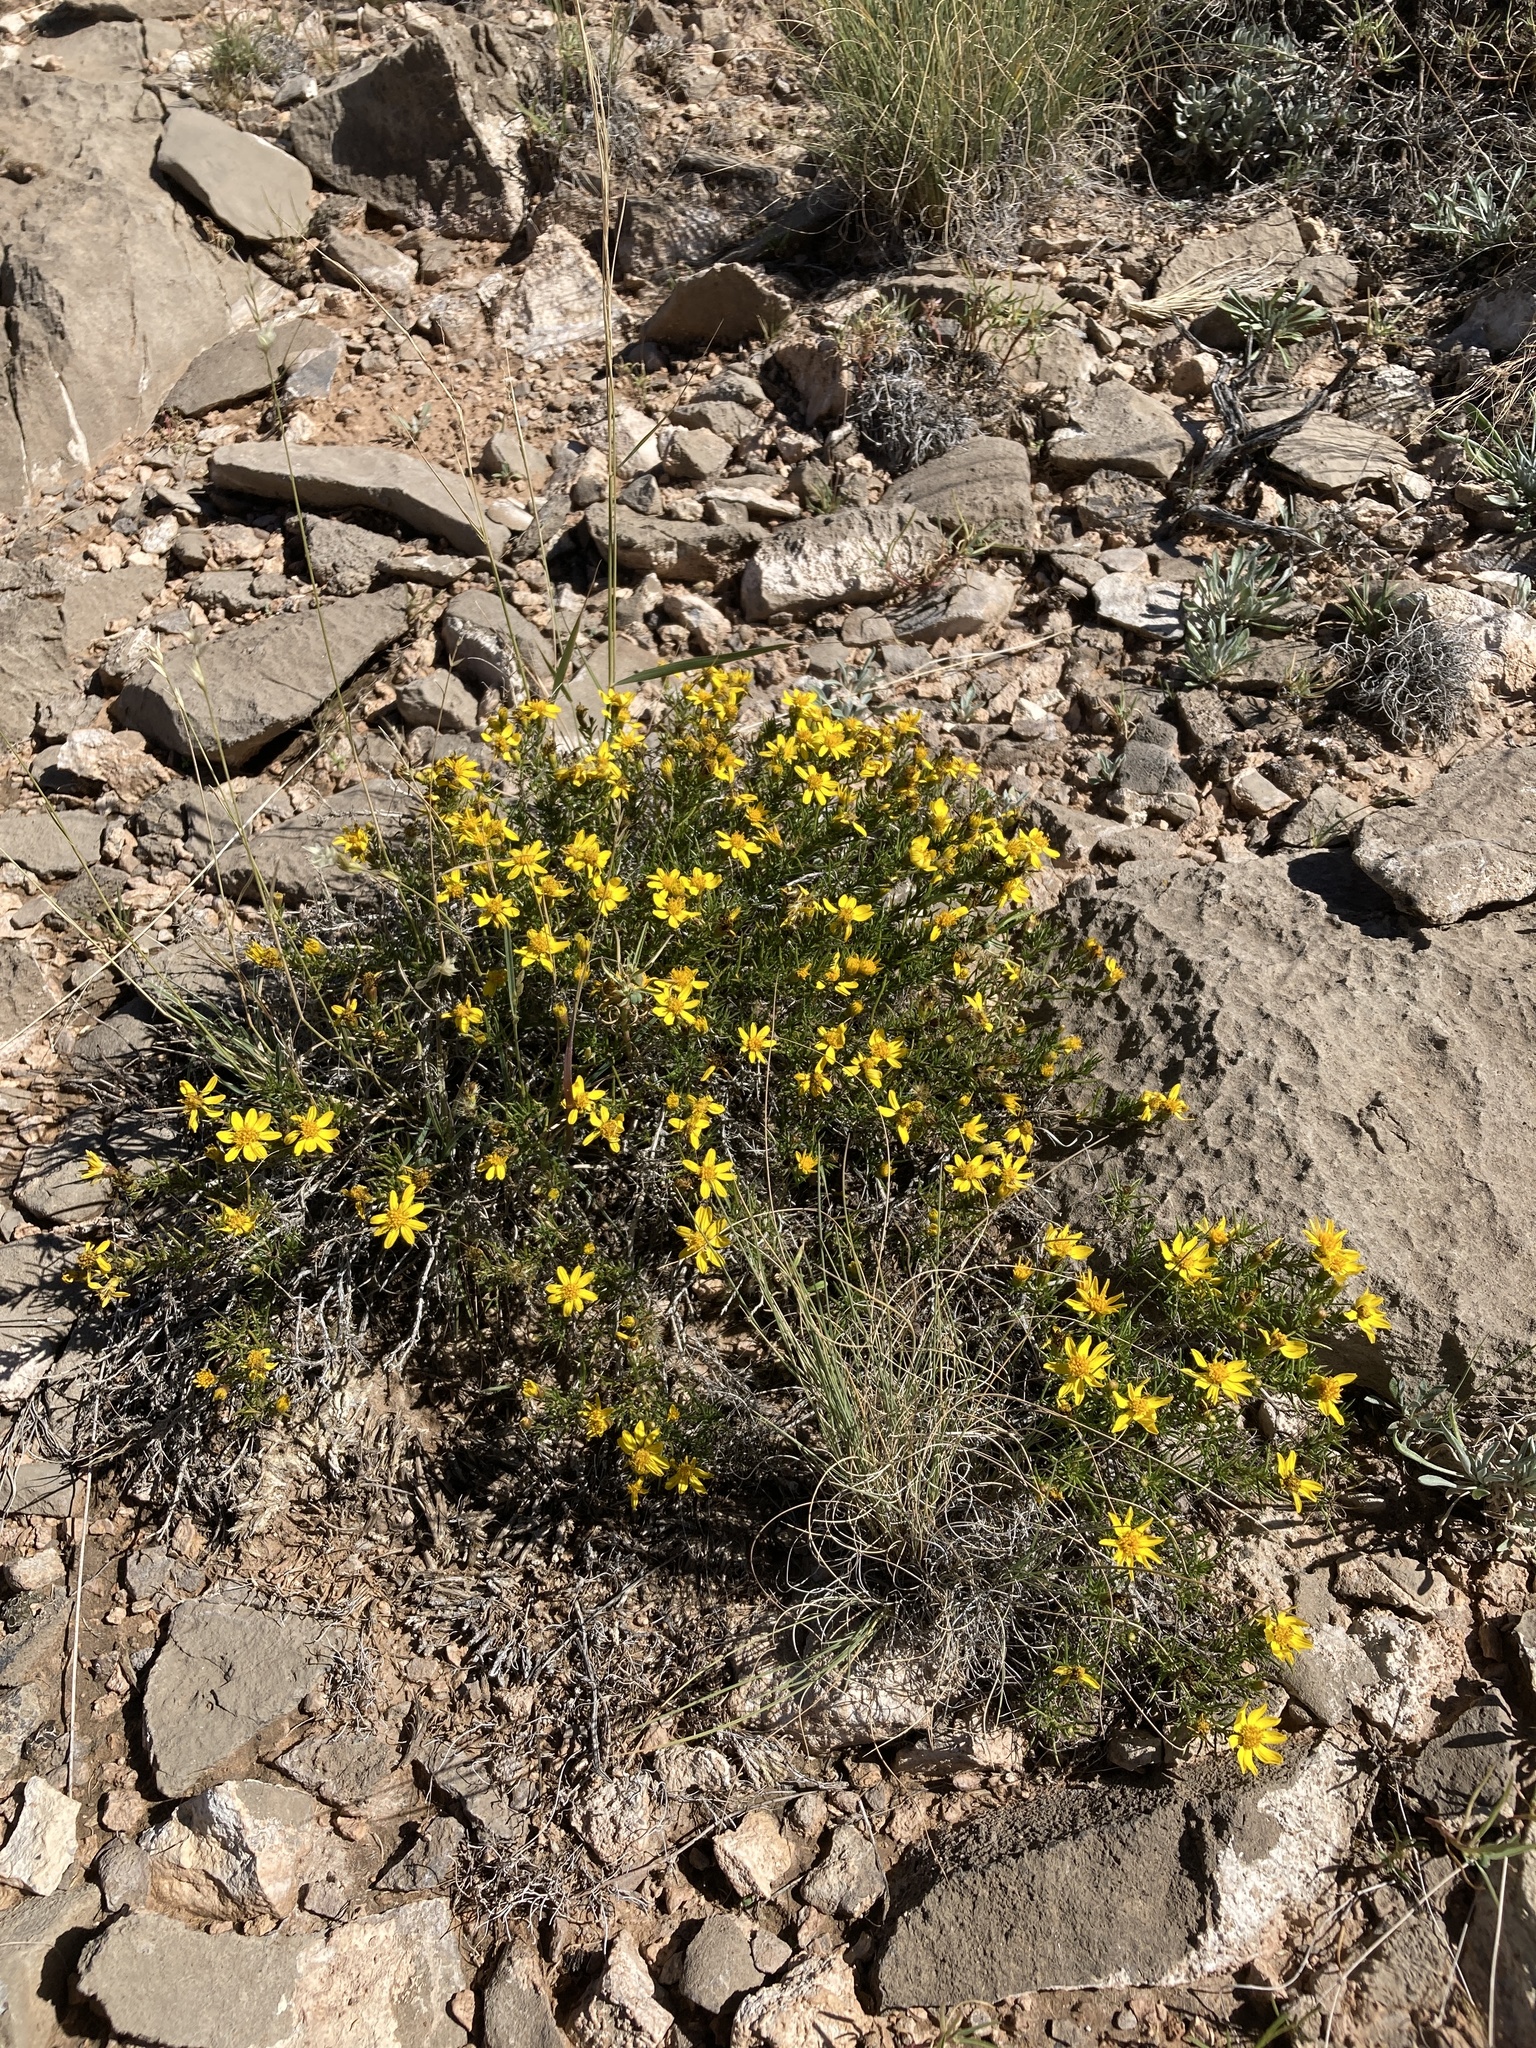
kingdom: Plantae
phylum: Tracheophyta
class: Magnoliopsida
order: Asterales
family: Asteraceae
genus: Thymophylla
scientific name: Thymophylla acerosa
